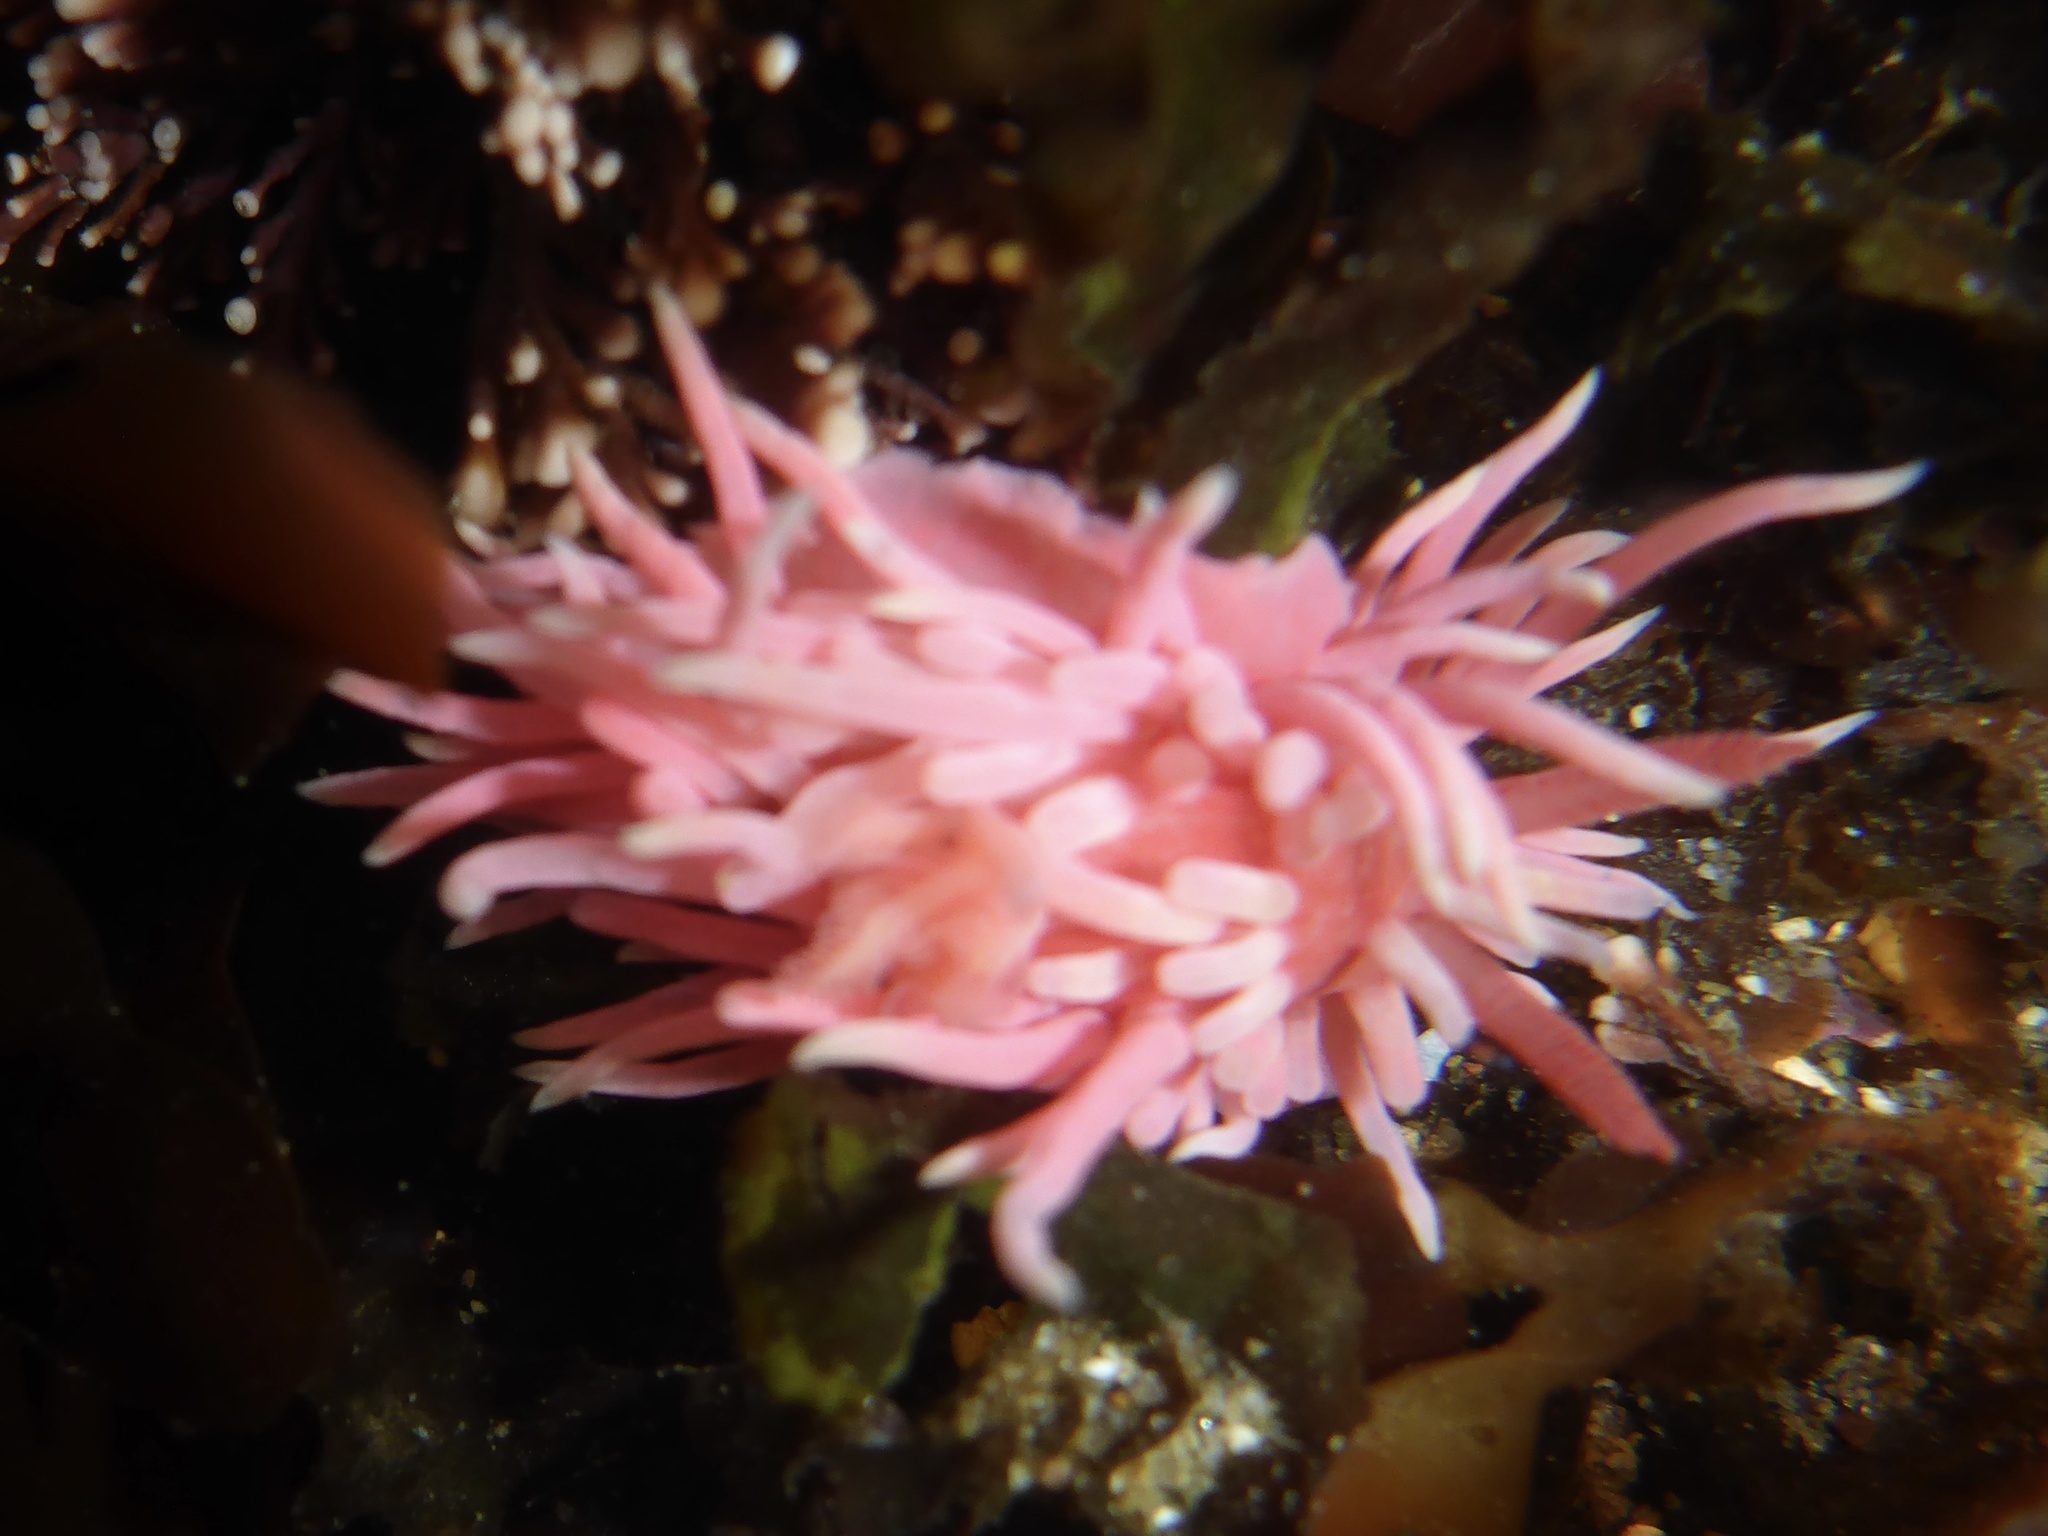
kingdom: Animalia
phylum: Mollusca
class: Gastropoda
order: Nudibranchia
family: Goniodorididae
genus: Okenia
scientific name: Okenia
